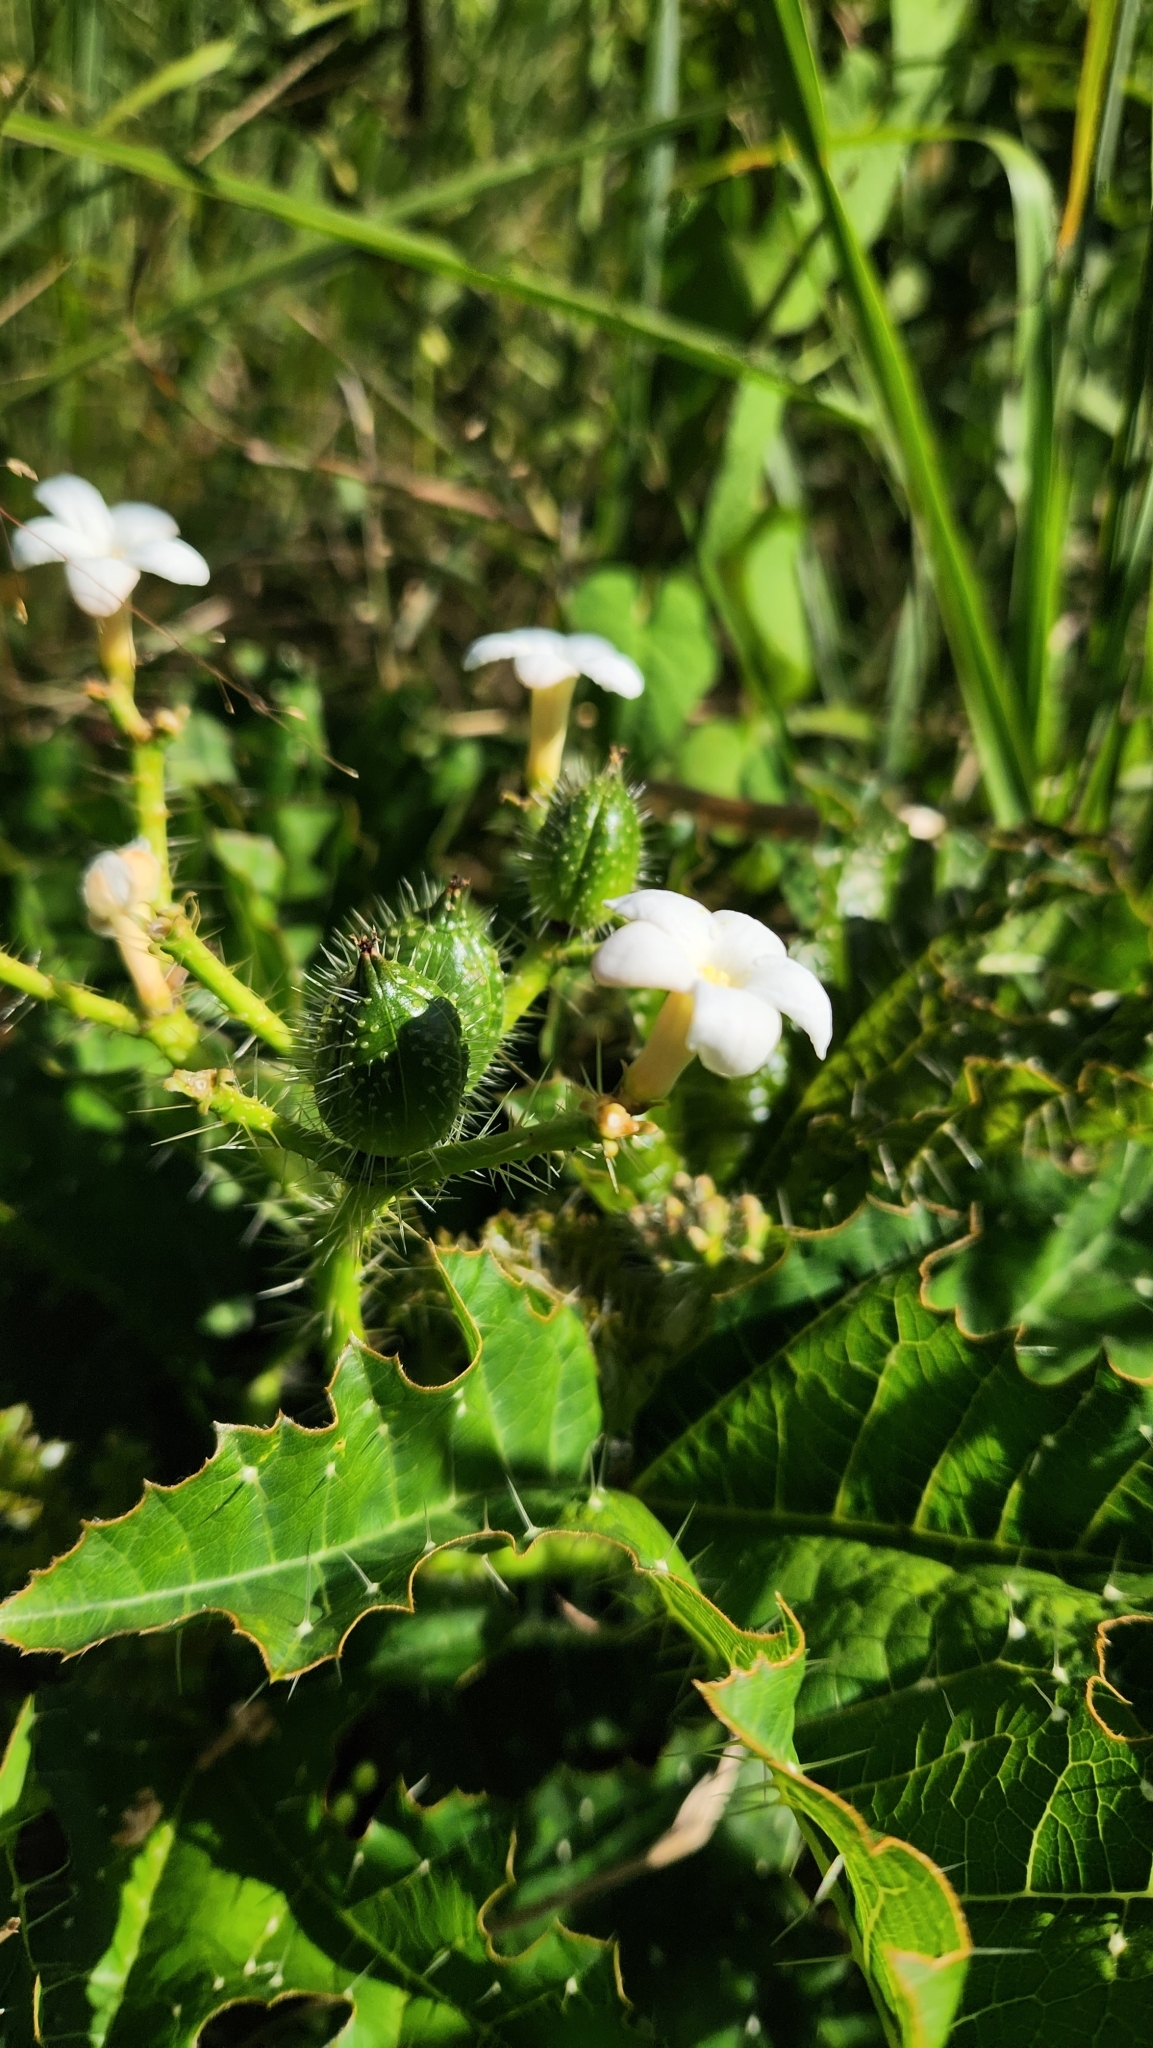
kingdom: Plantae
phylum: Tracheophyta
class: Magnoliopsida
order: Malpighiales
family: Euphorbiaceae
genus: Cnidoscolus
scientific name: Cnidoscolus albomaculatus
